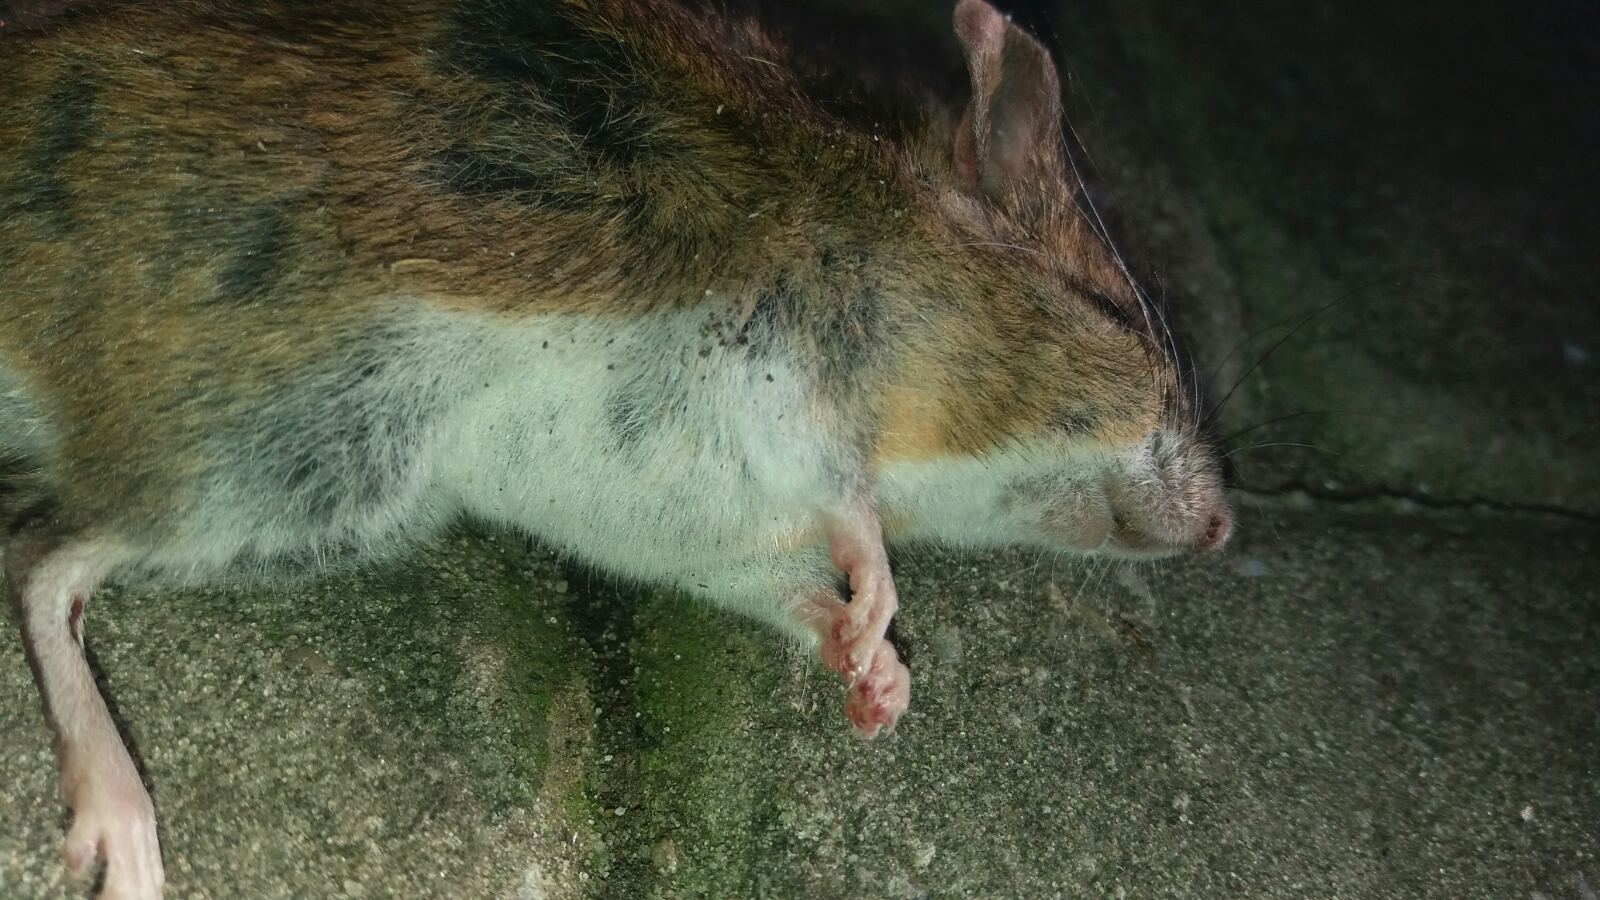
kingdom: Animalia
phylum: Chordata
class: Mammalia
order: Rodentia
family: Muridae
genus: Apodemus
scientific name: Apodemus
